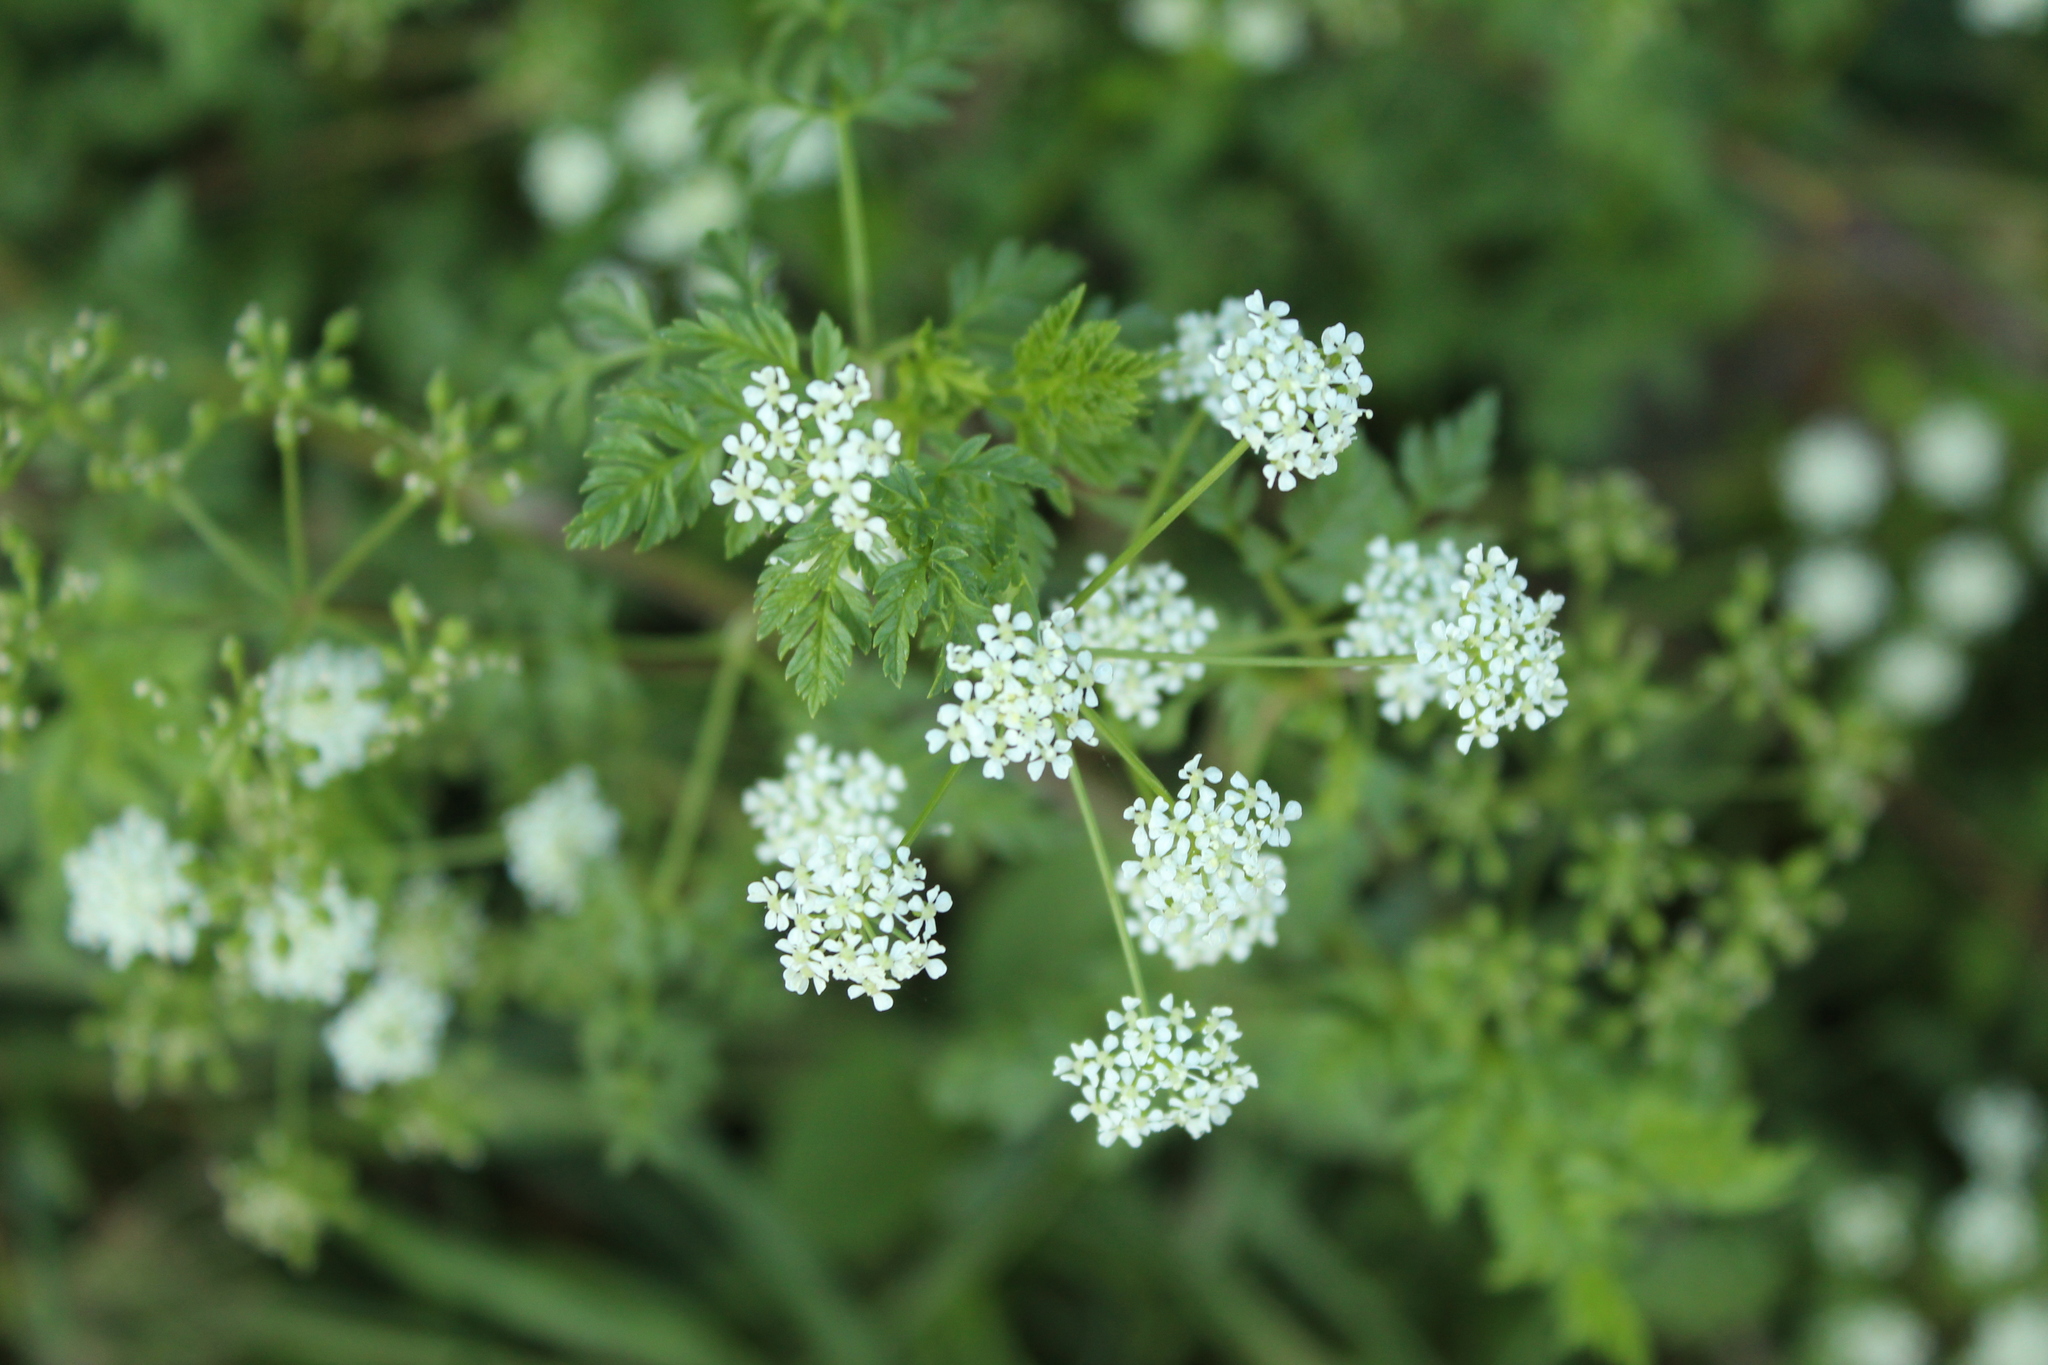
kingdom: Plantae
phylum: Tracheophyta
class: Magnoliopsida
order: Apiales
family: Apiaceae
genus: Conium
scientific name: Conium maculatum
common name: Hemlock
